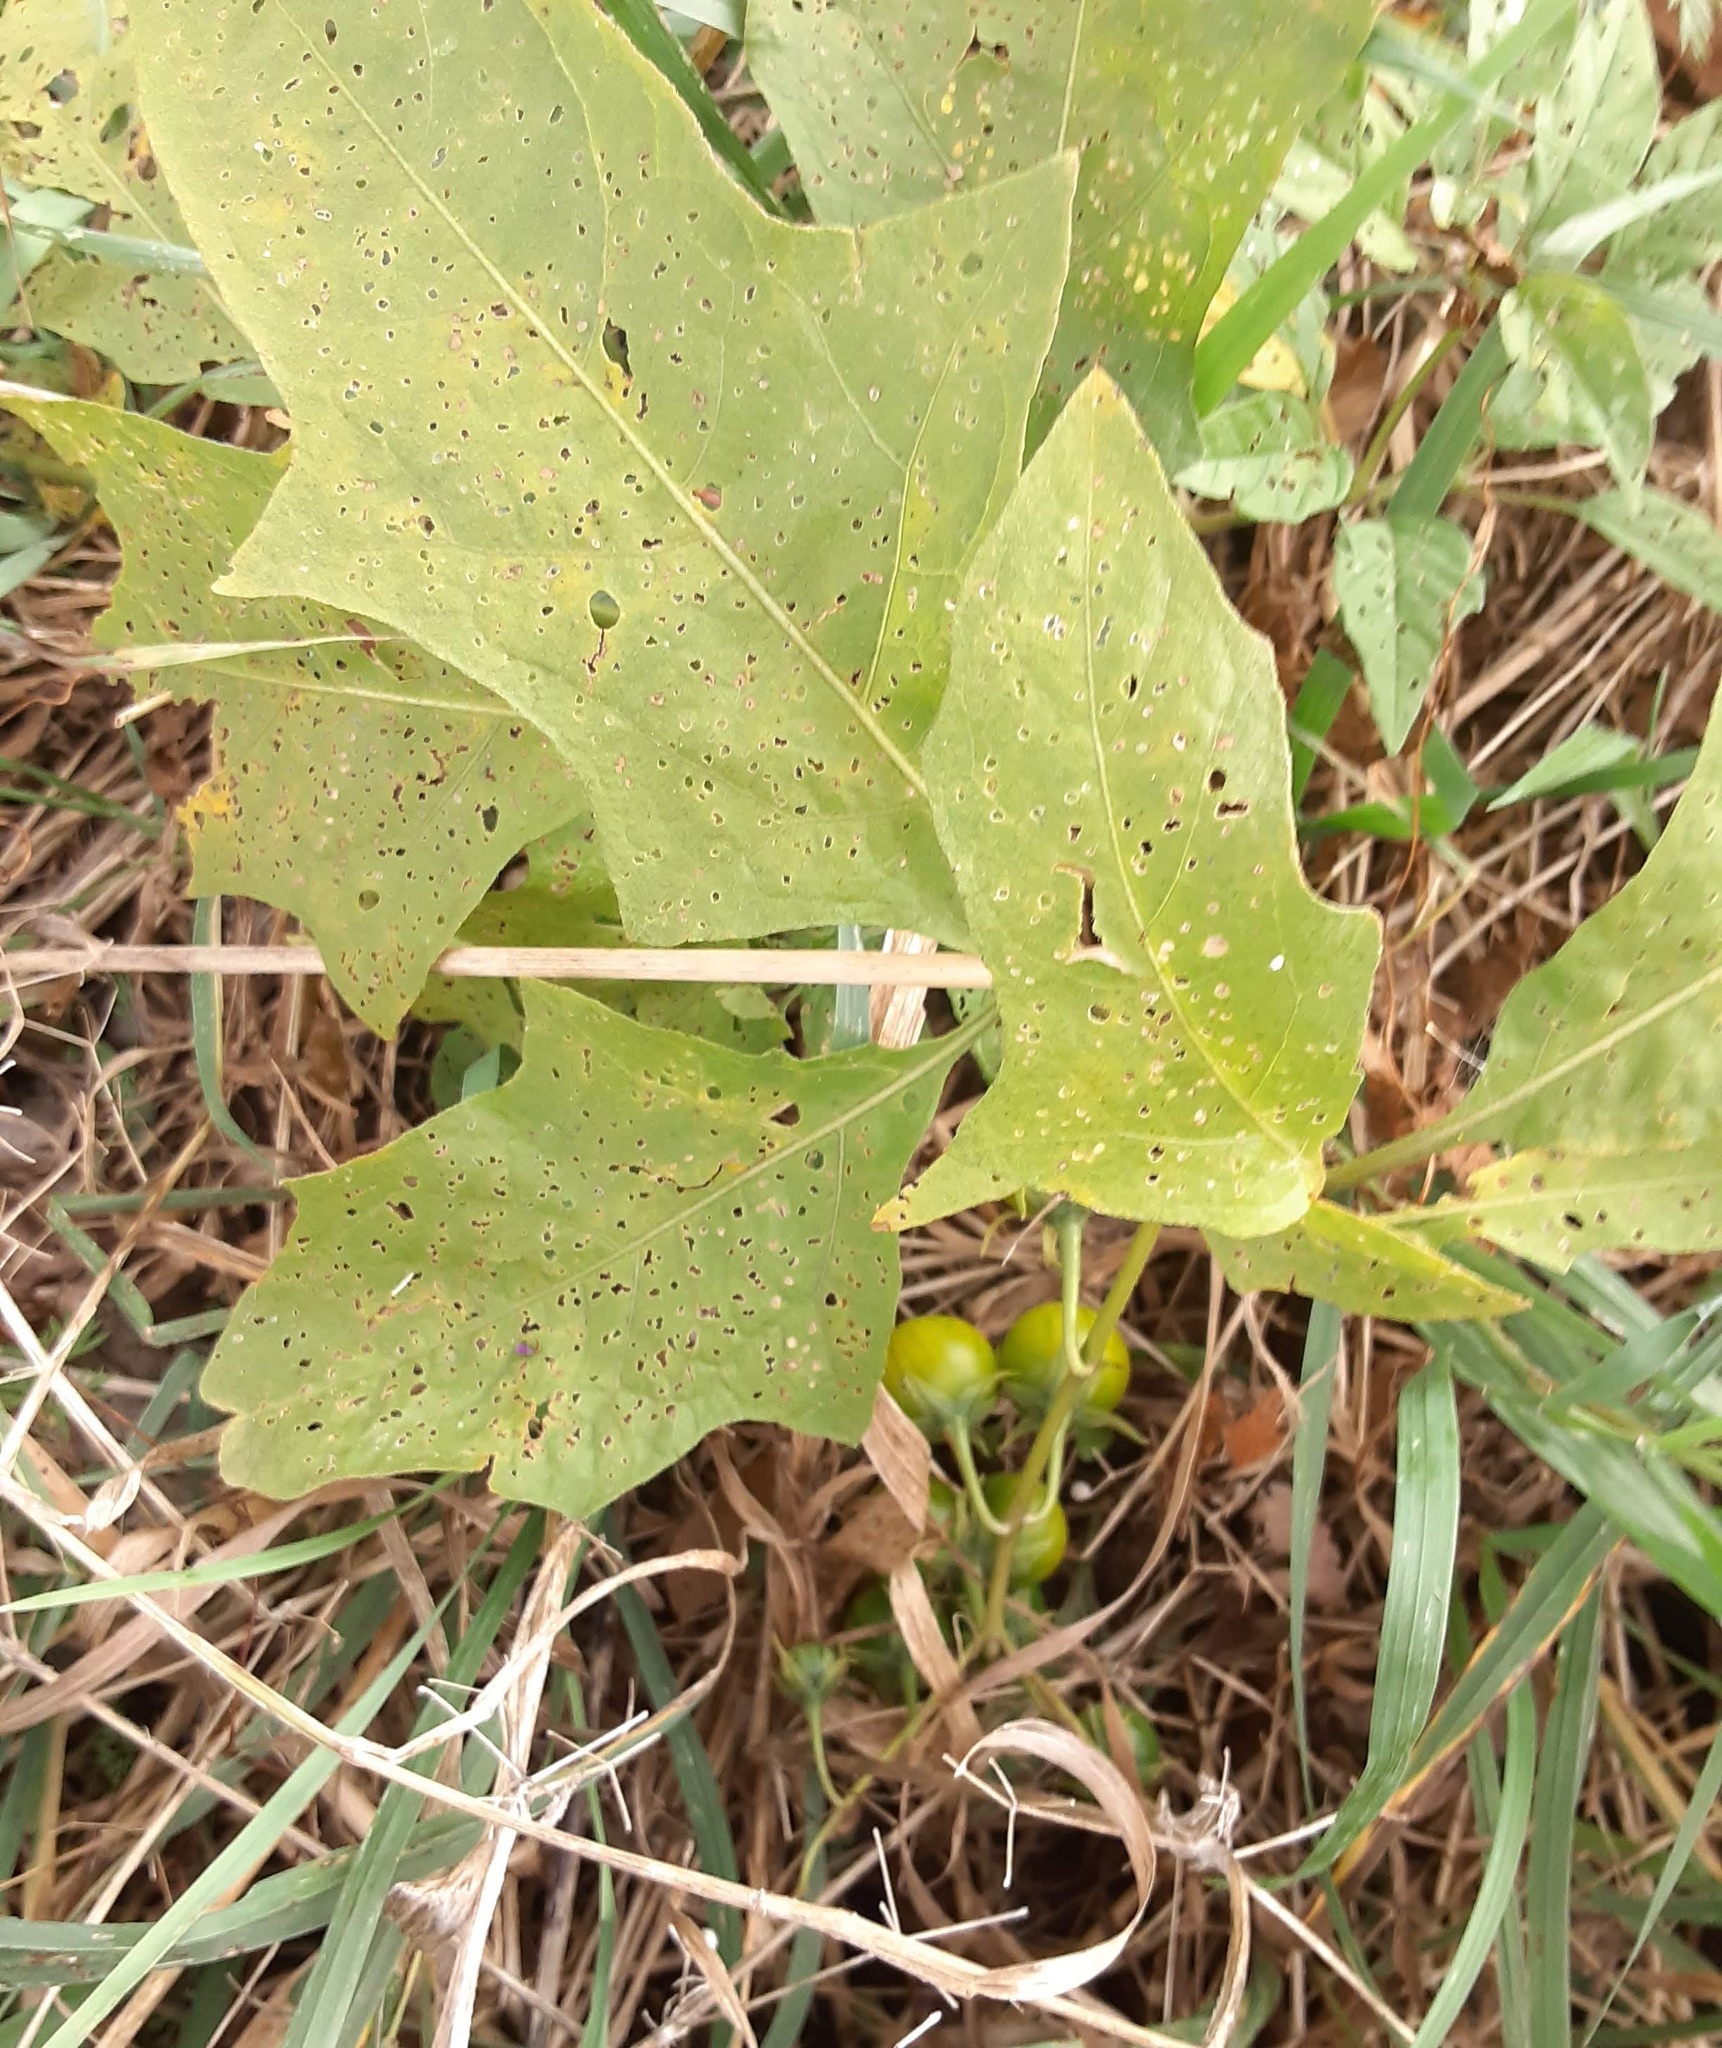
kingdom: Plantae
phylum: Tracheophyta
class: Magnoliopsida
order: Solanales
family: Solanaceae
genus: Solanum
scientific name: Solanum carolinense
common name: Horse-nettle
